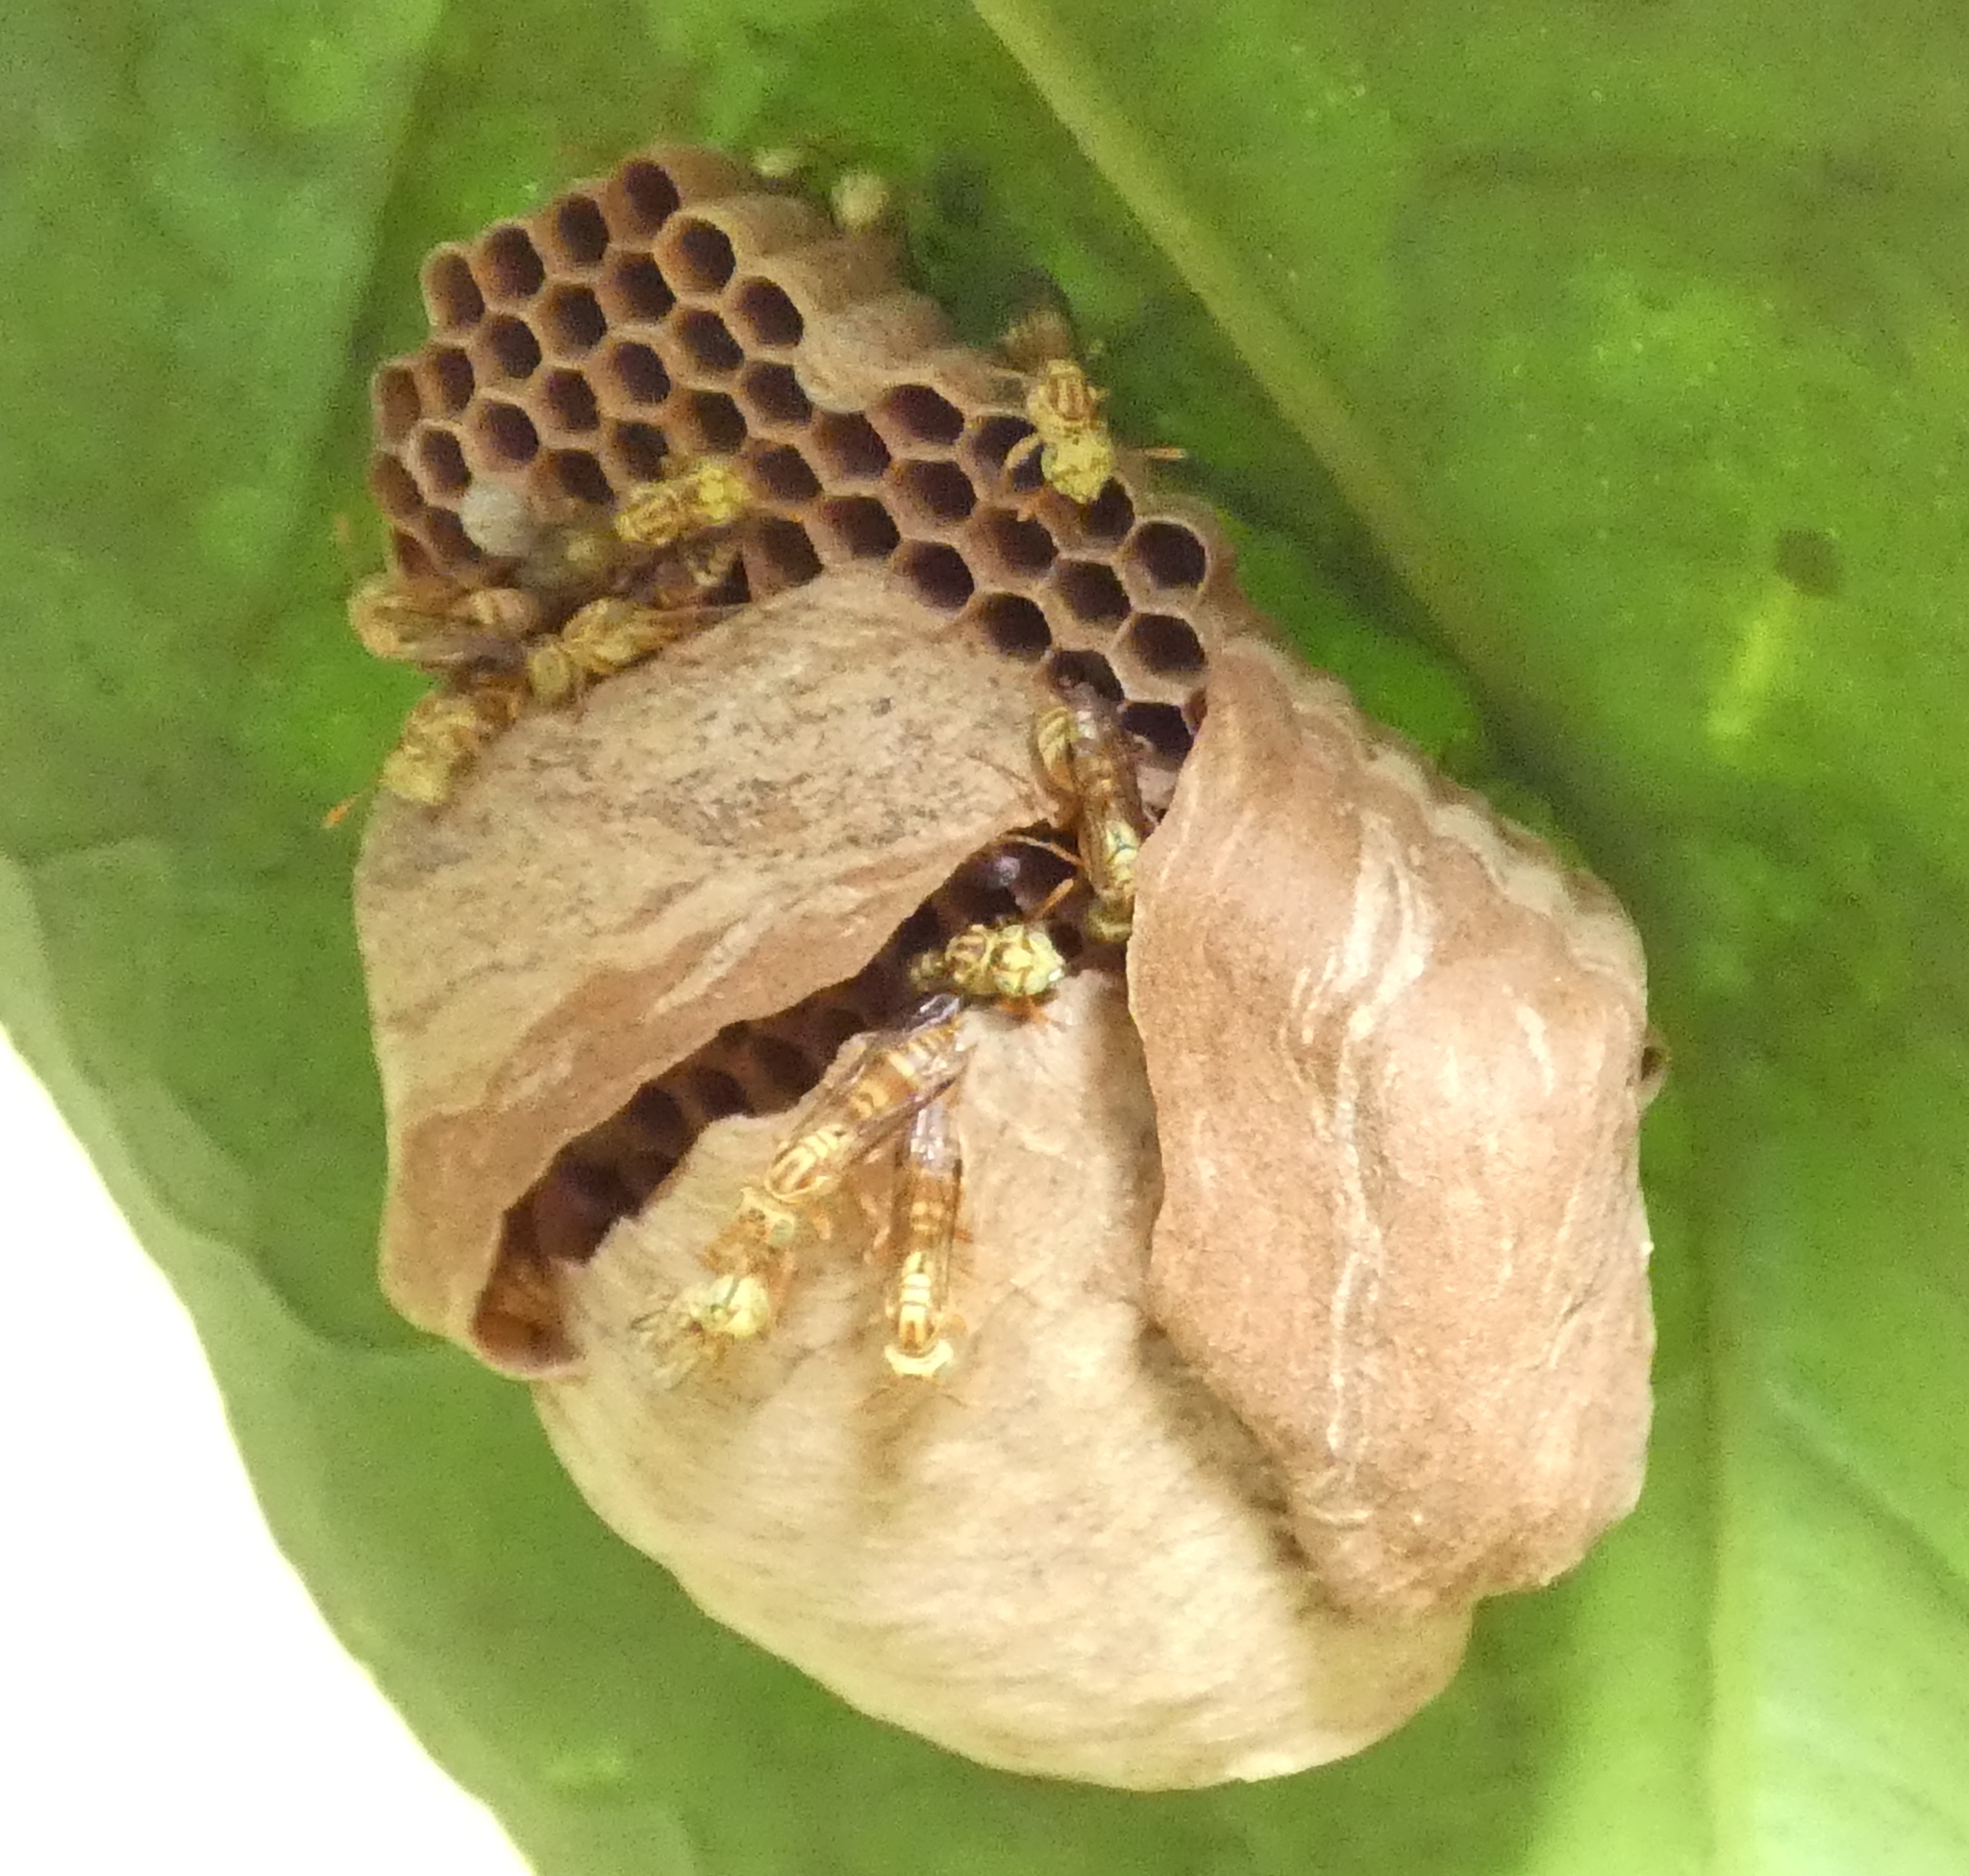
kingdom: Animalia
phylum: Arthropoda
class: Insecta
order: Hymenoptera
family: Vespidae
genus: Protopolybia
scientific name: Protopolybia potiguara
